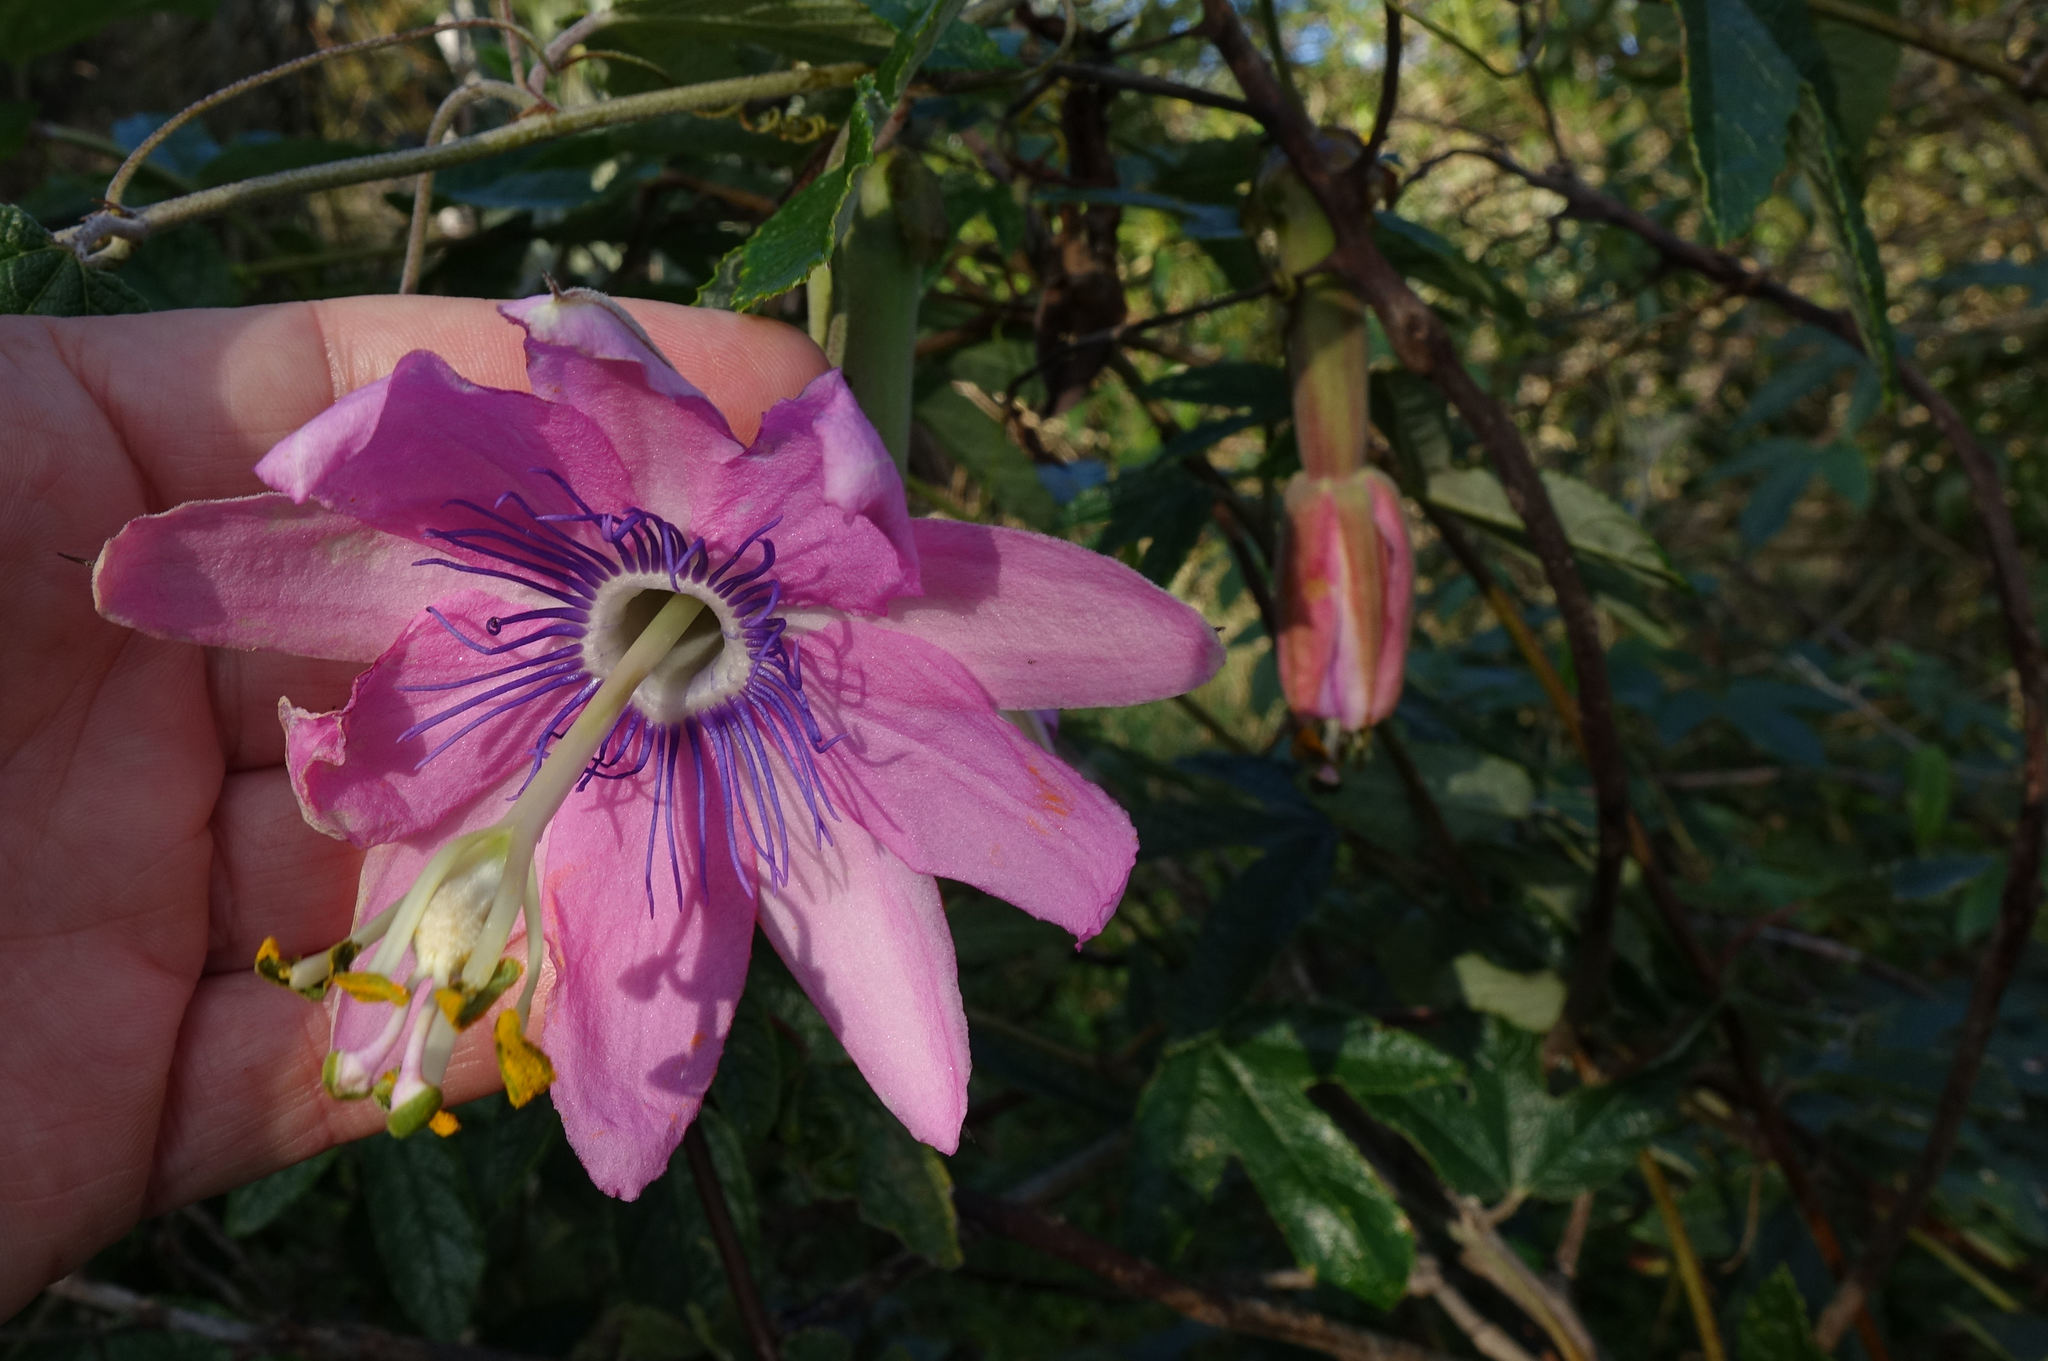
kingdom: Plantae
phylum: Tracheophyta
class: Magnoliopsida
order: Malpighiales
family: Passifloraceae
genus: Passiflora
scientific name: Passiflora pinnatistipula
